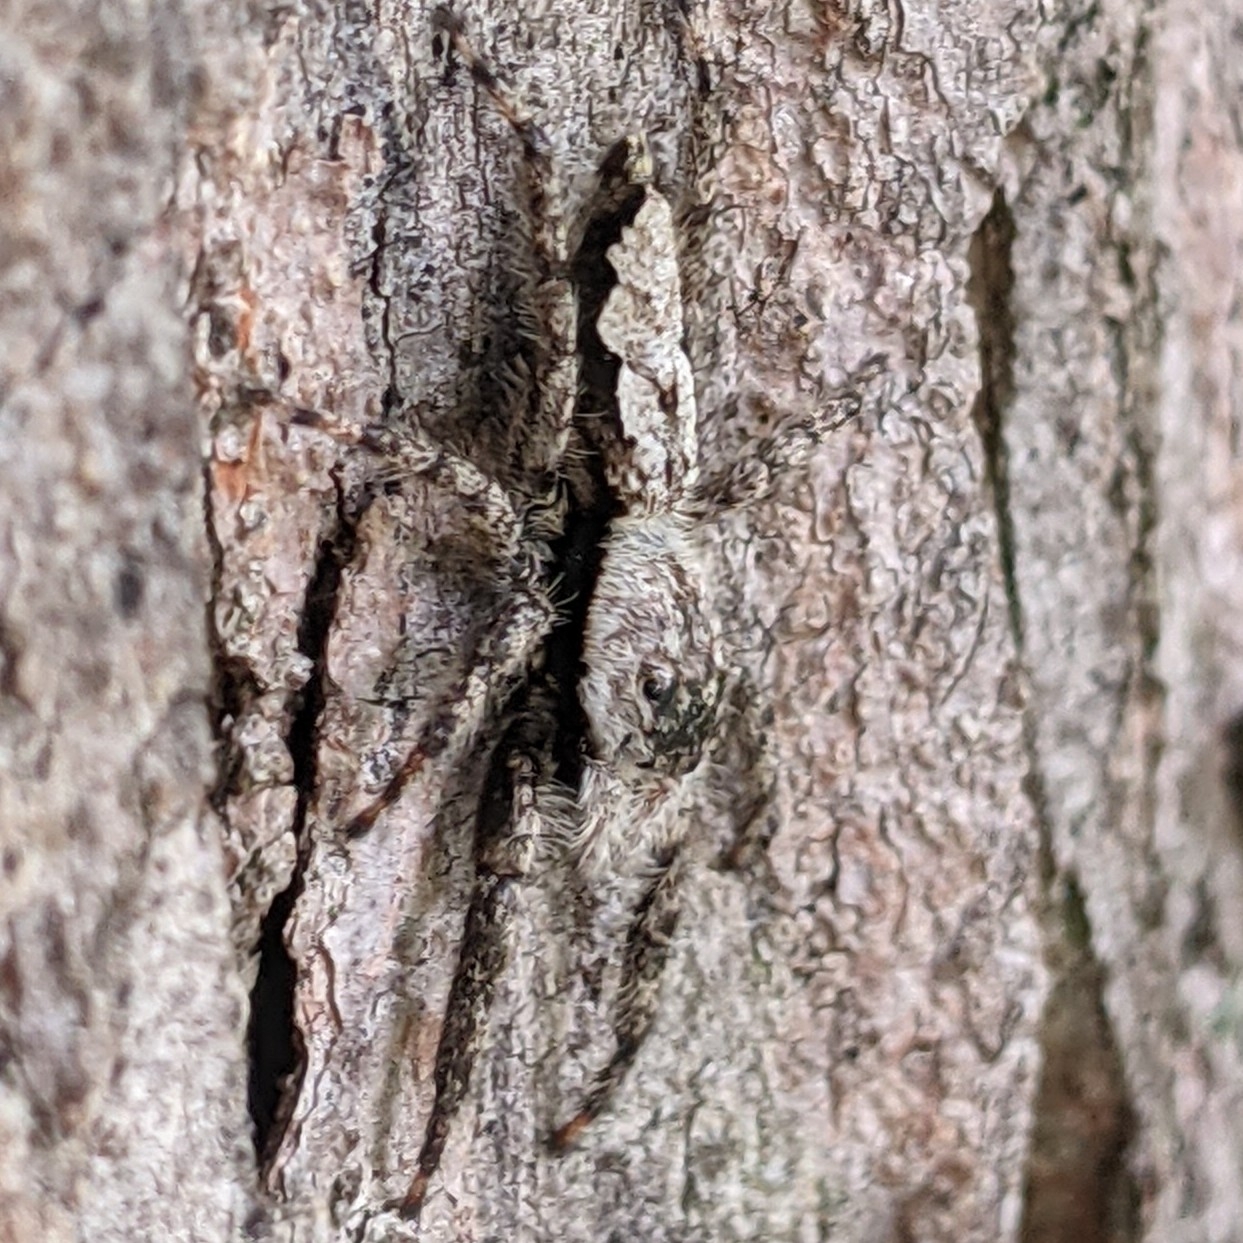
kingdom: Animalia
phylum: Arthropoda
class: Arachnida
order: Araneae
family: Salticidae
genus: Platycryptus
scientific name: Platycryptus undatus
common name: Tan jumping spider
